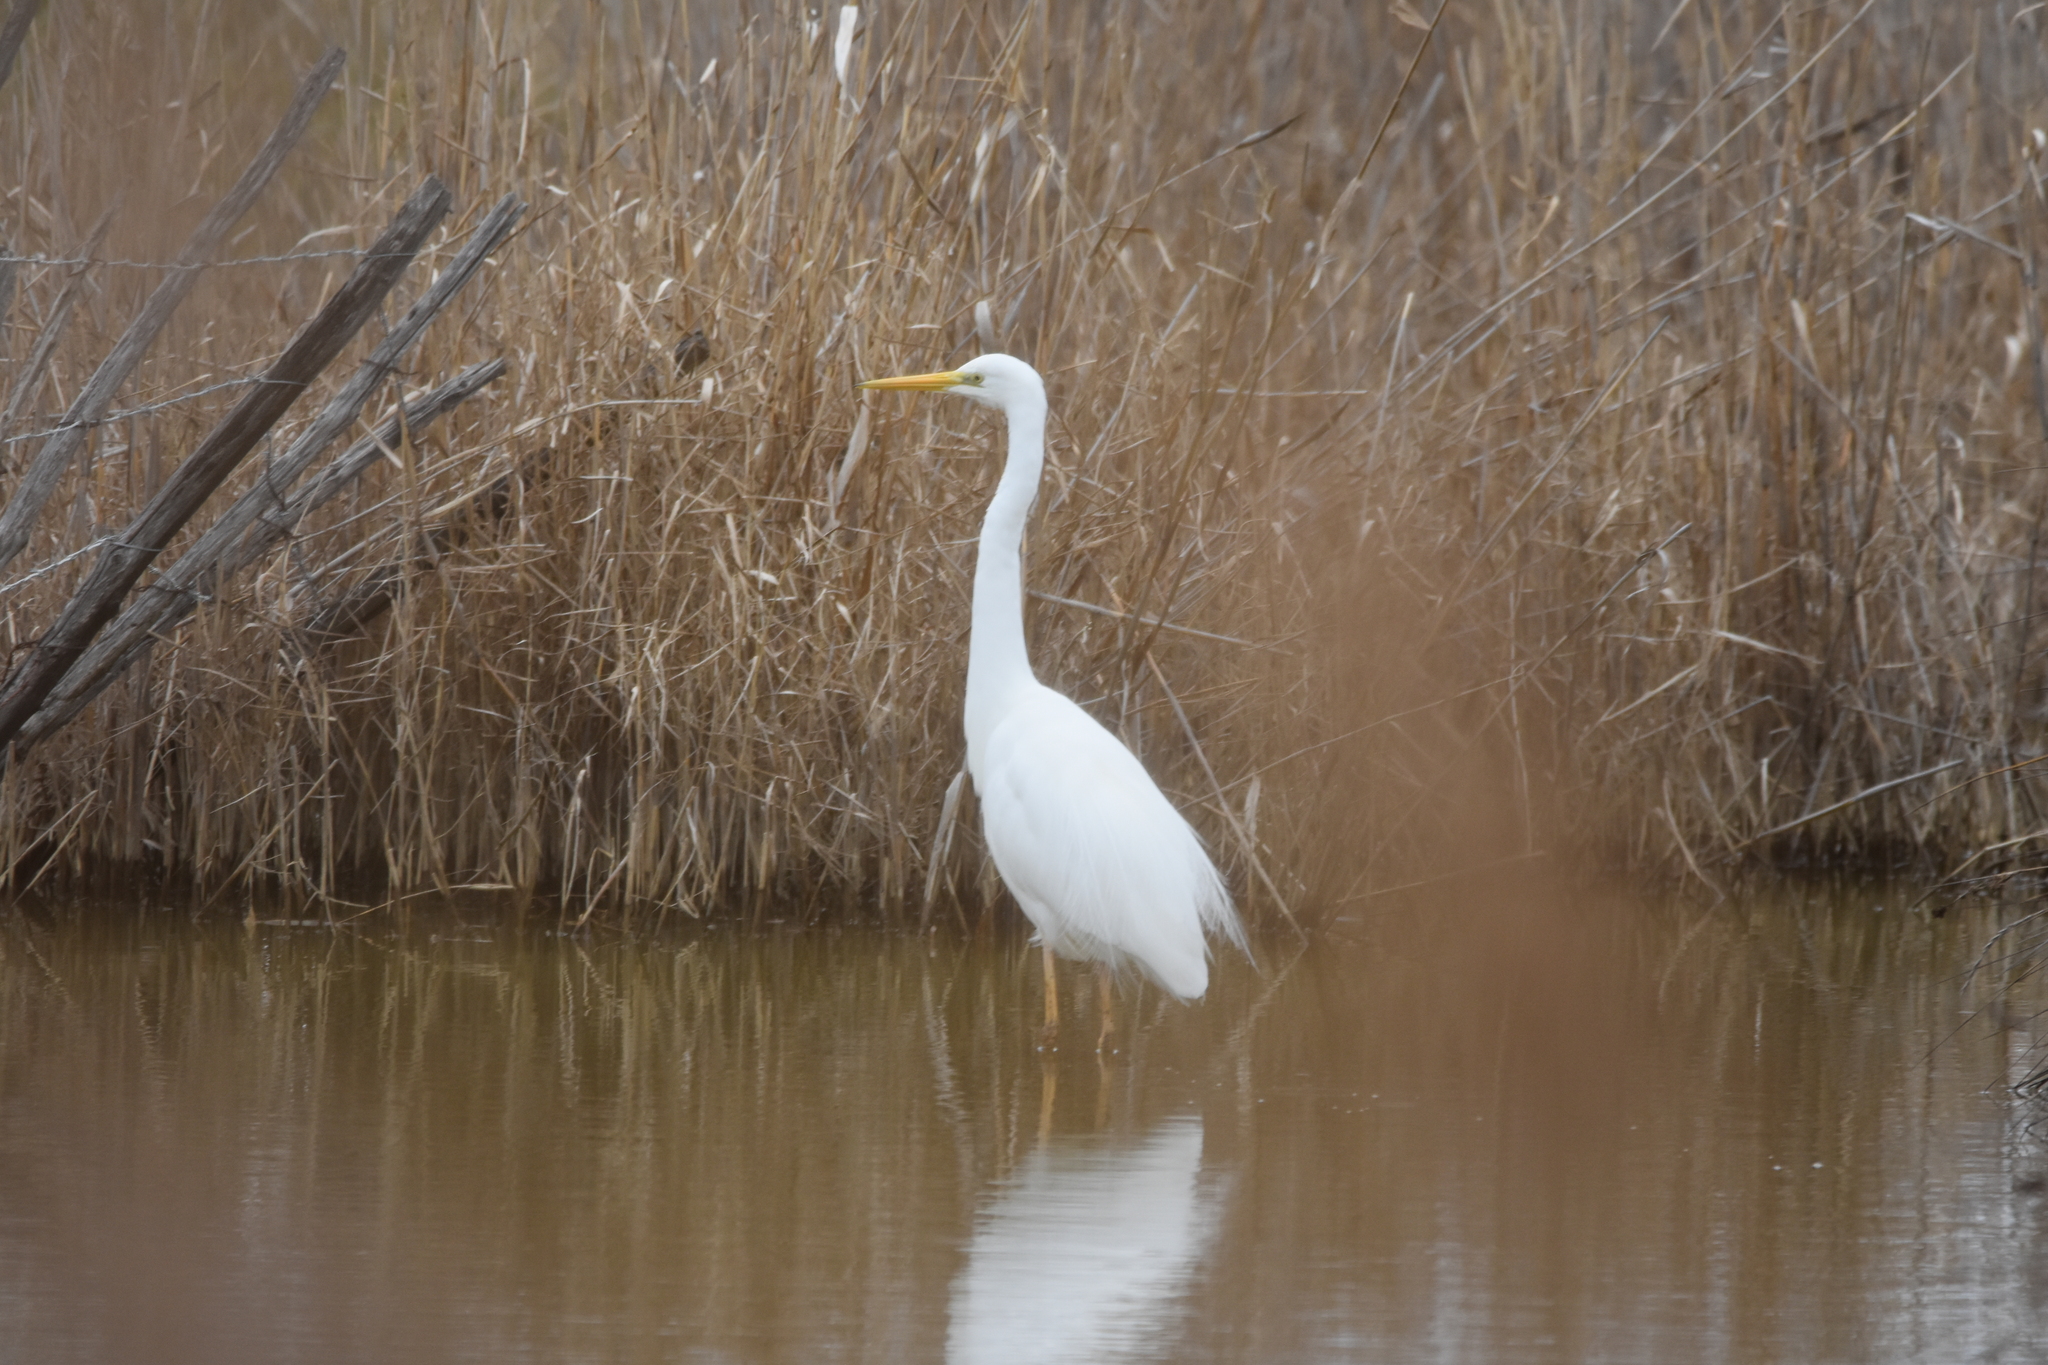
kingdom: Animalia
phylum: Chordata
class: Aves
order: Pelecaniformes
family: Ardeidae
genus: Ardea
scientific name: Ardea alba
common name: Great egret
